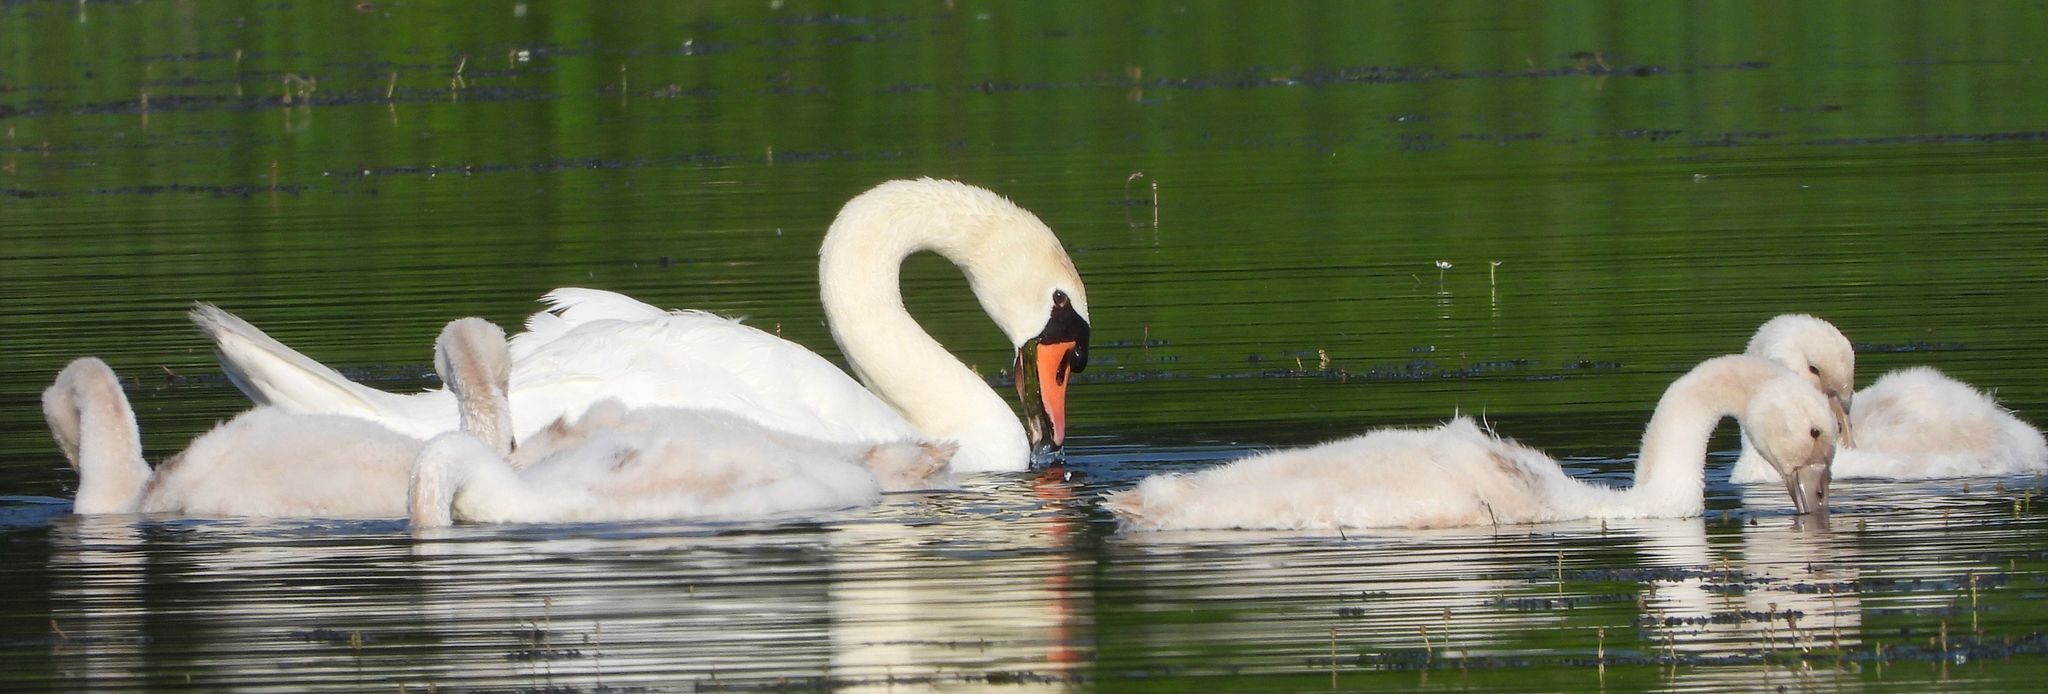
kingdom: Animalia
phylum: Chordata
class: Aves
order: Anseriformes
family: Anatidae
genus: Cygnus
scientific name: Cygnus olor
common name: Mute swan
